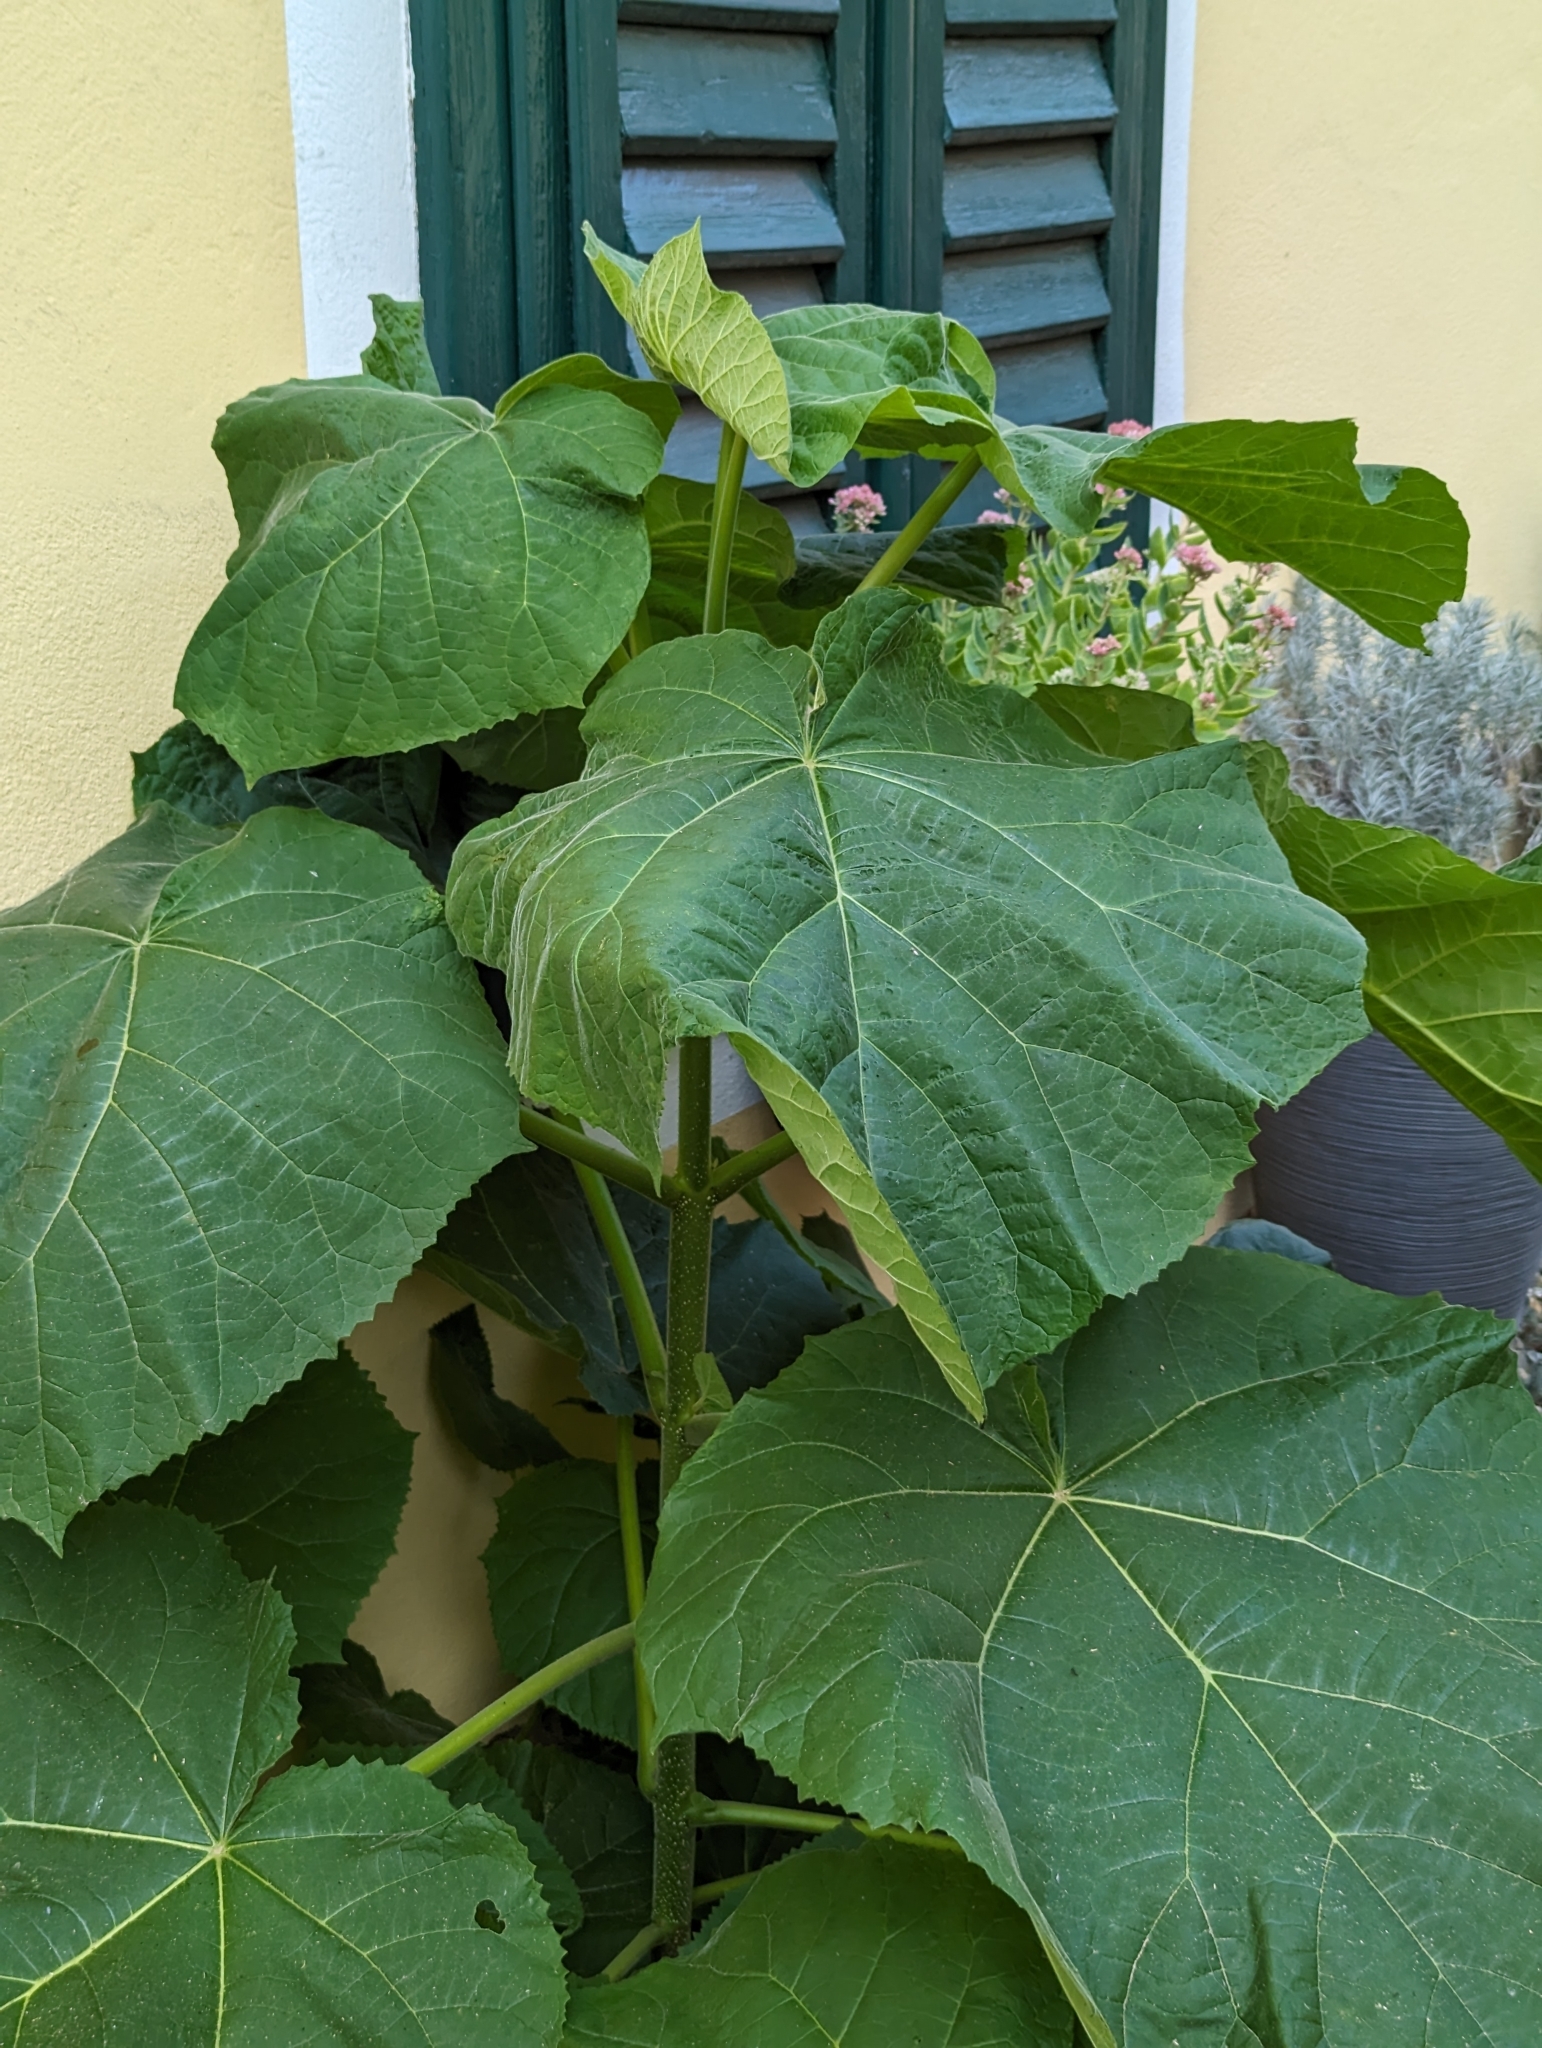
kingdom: Plantae
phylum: Tracheophyta
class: Magnoliopsida
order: Lamiales
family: Paulowniaceae
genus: Paulownia
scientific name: Paulownia tomentosa
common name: Foxglove-tree
